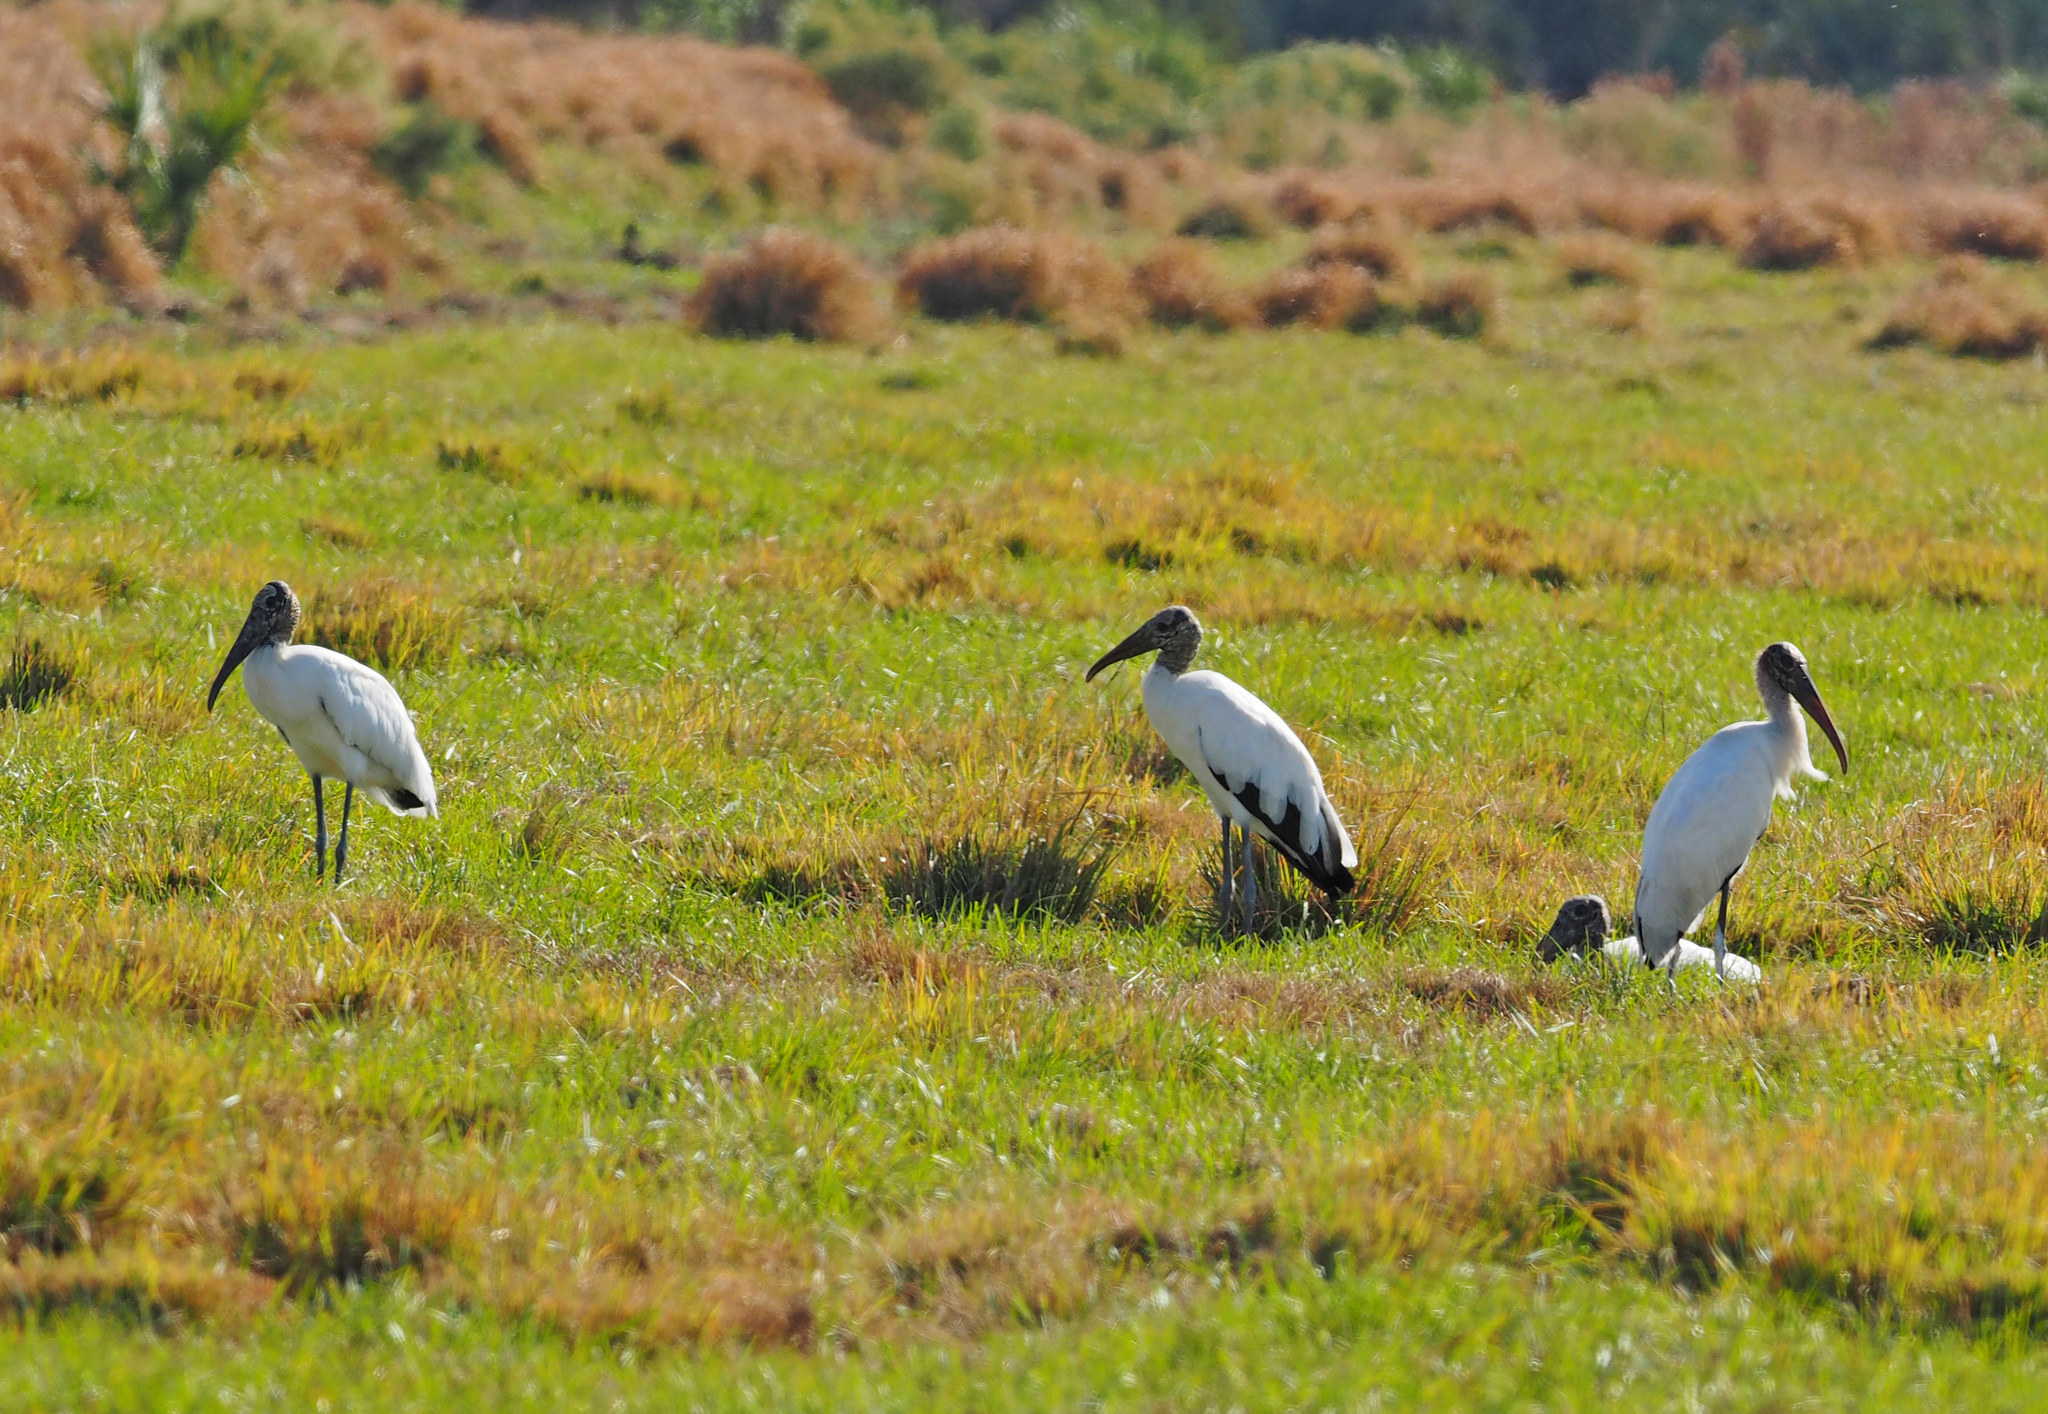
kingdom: Animalia
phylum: Chordata
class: Aves
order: Ciconiiformes
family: Ciconiidae
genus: Mycteria
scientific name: Mycteria americana
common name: Wood stork
